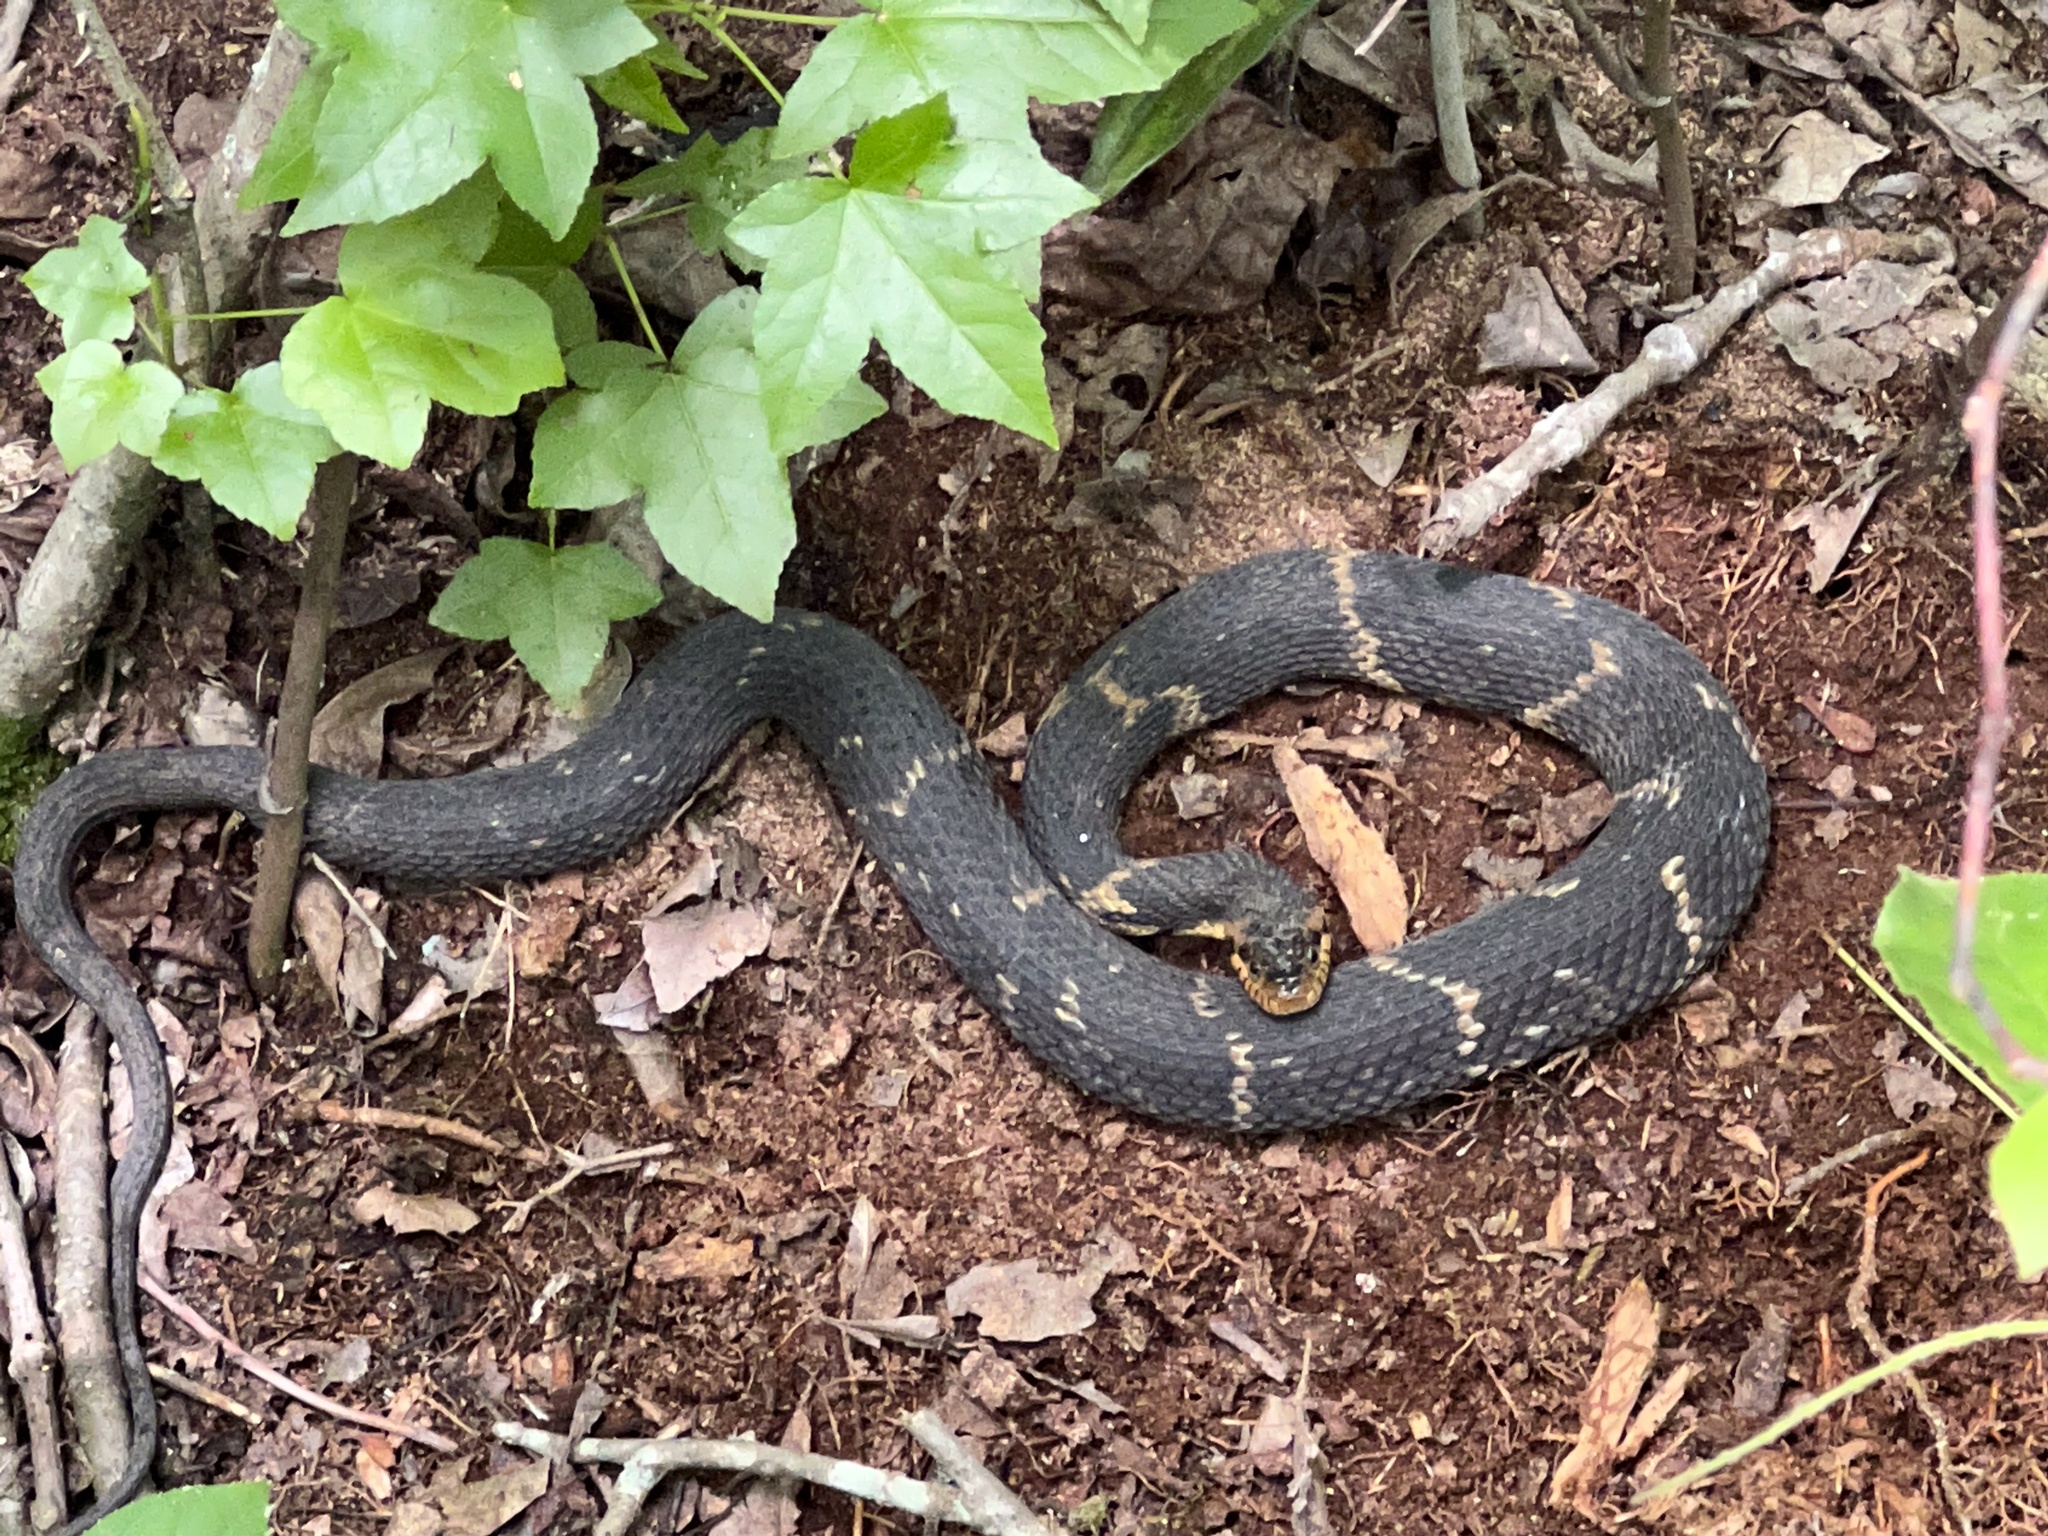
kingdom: Animalia
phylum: Chordata
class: Squamata
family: Colubridae
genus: Nerodia
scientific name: Nerodia fasciata
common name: Southern water snake
